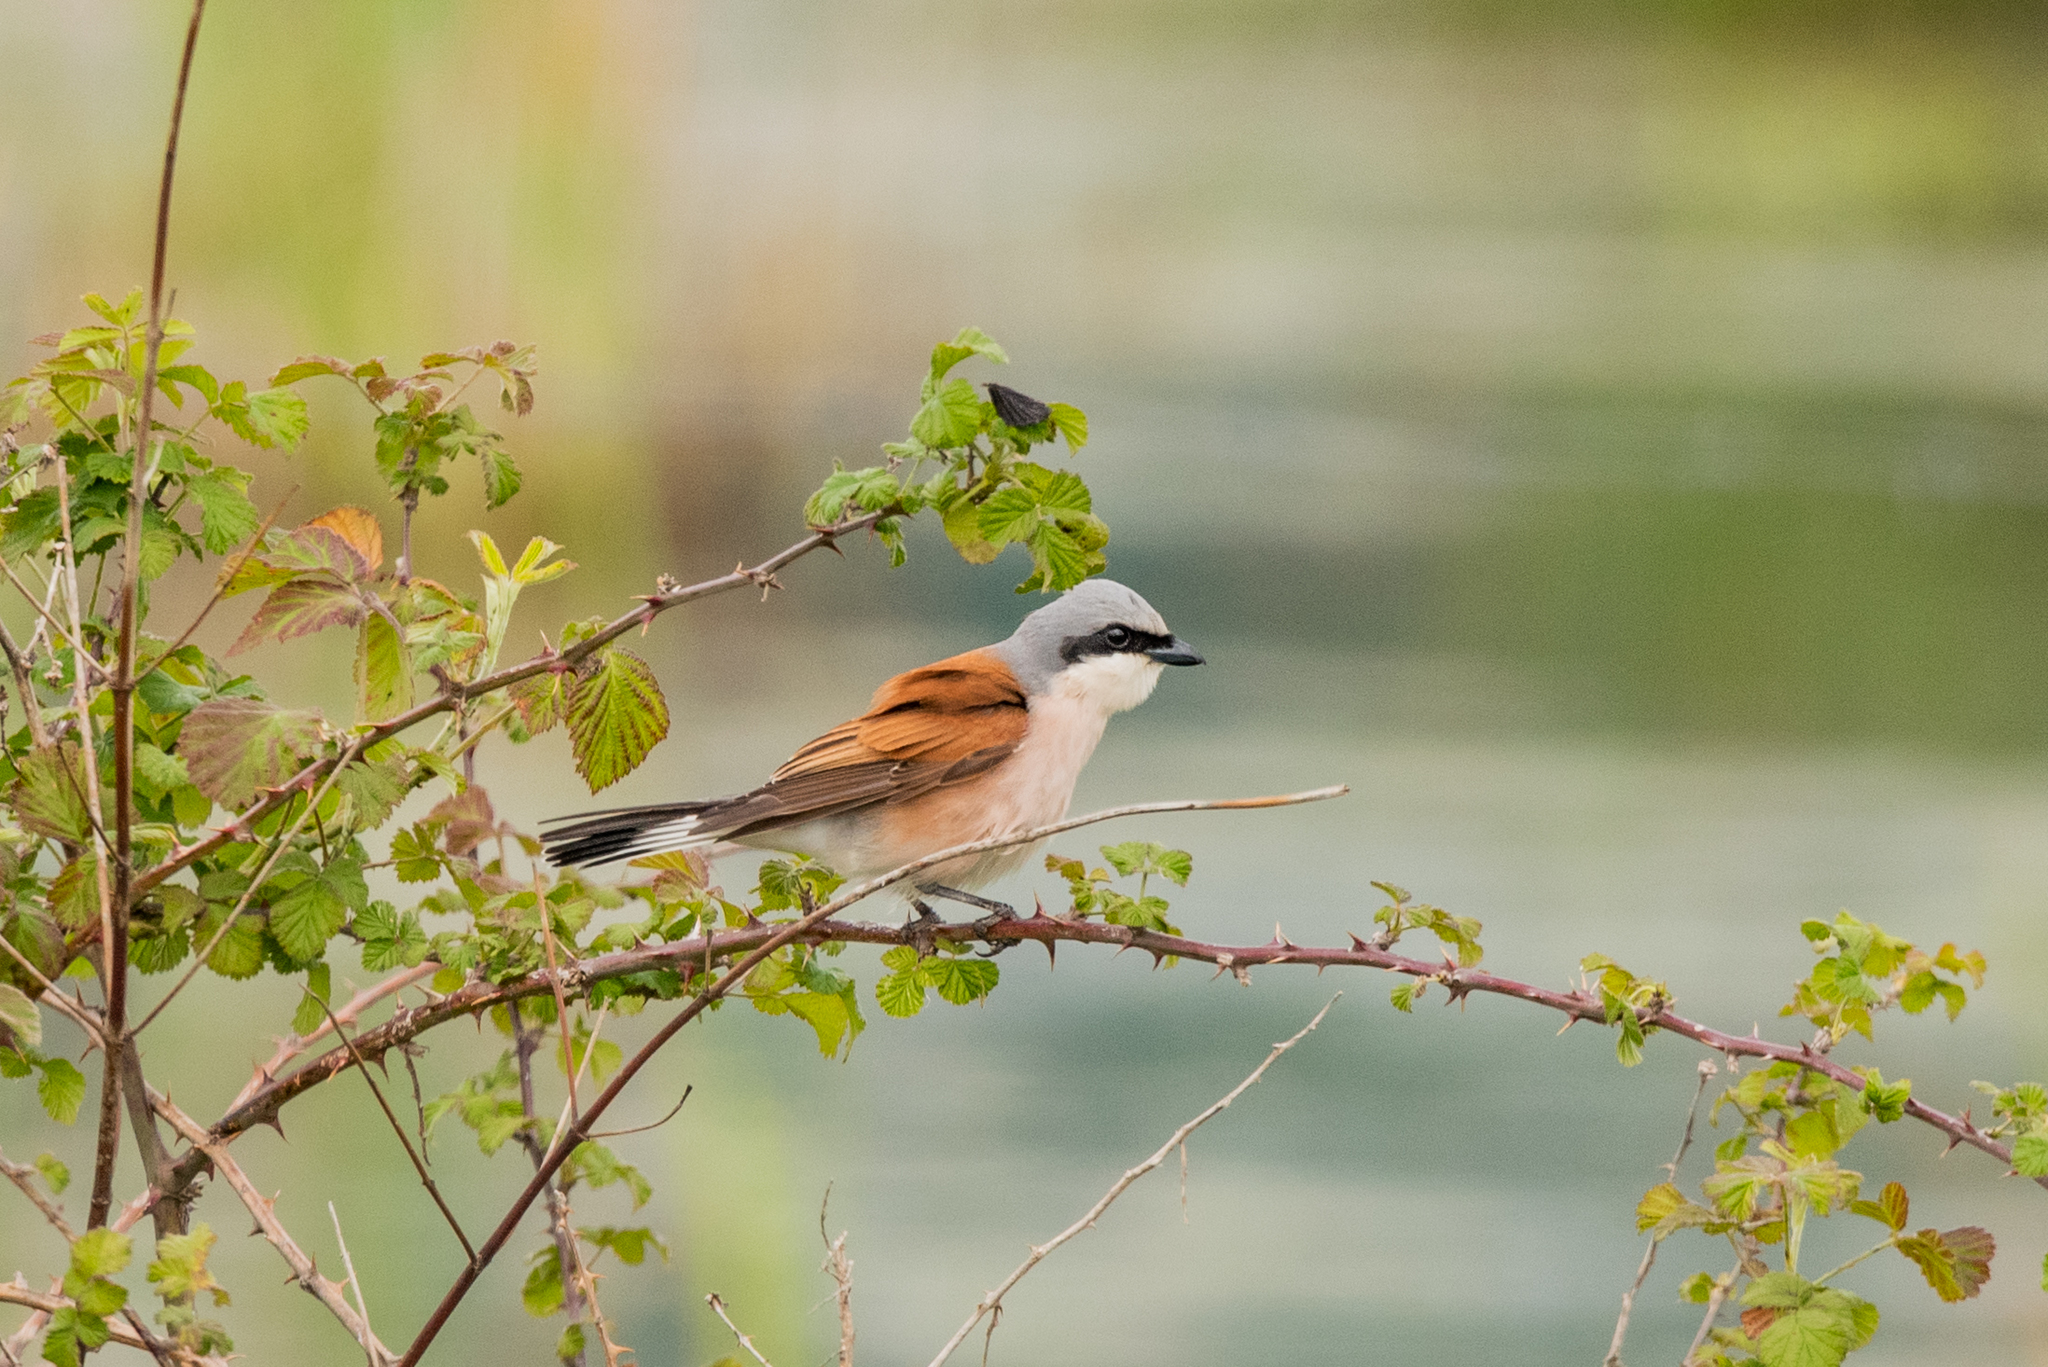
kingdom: Animalia
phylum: Chordata
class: Aves
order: Passeriformes
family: Laniidae
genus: Lanius
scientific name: Lanius collurio
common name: Red-backed shrike
